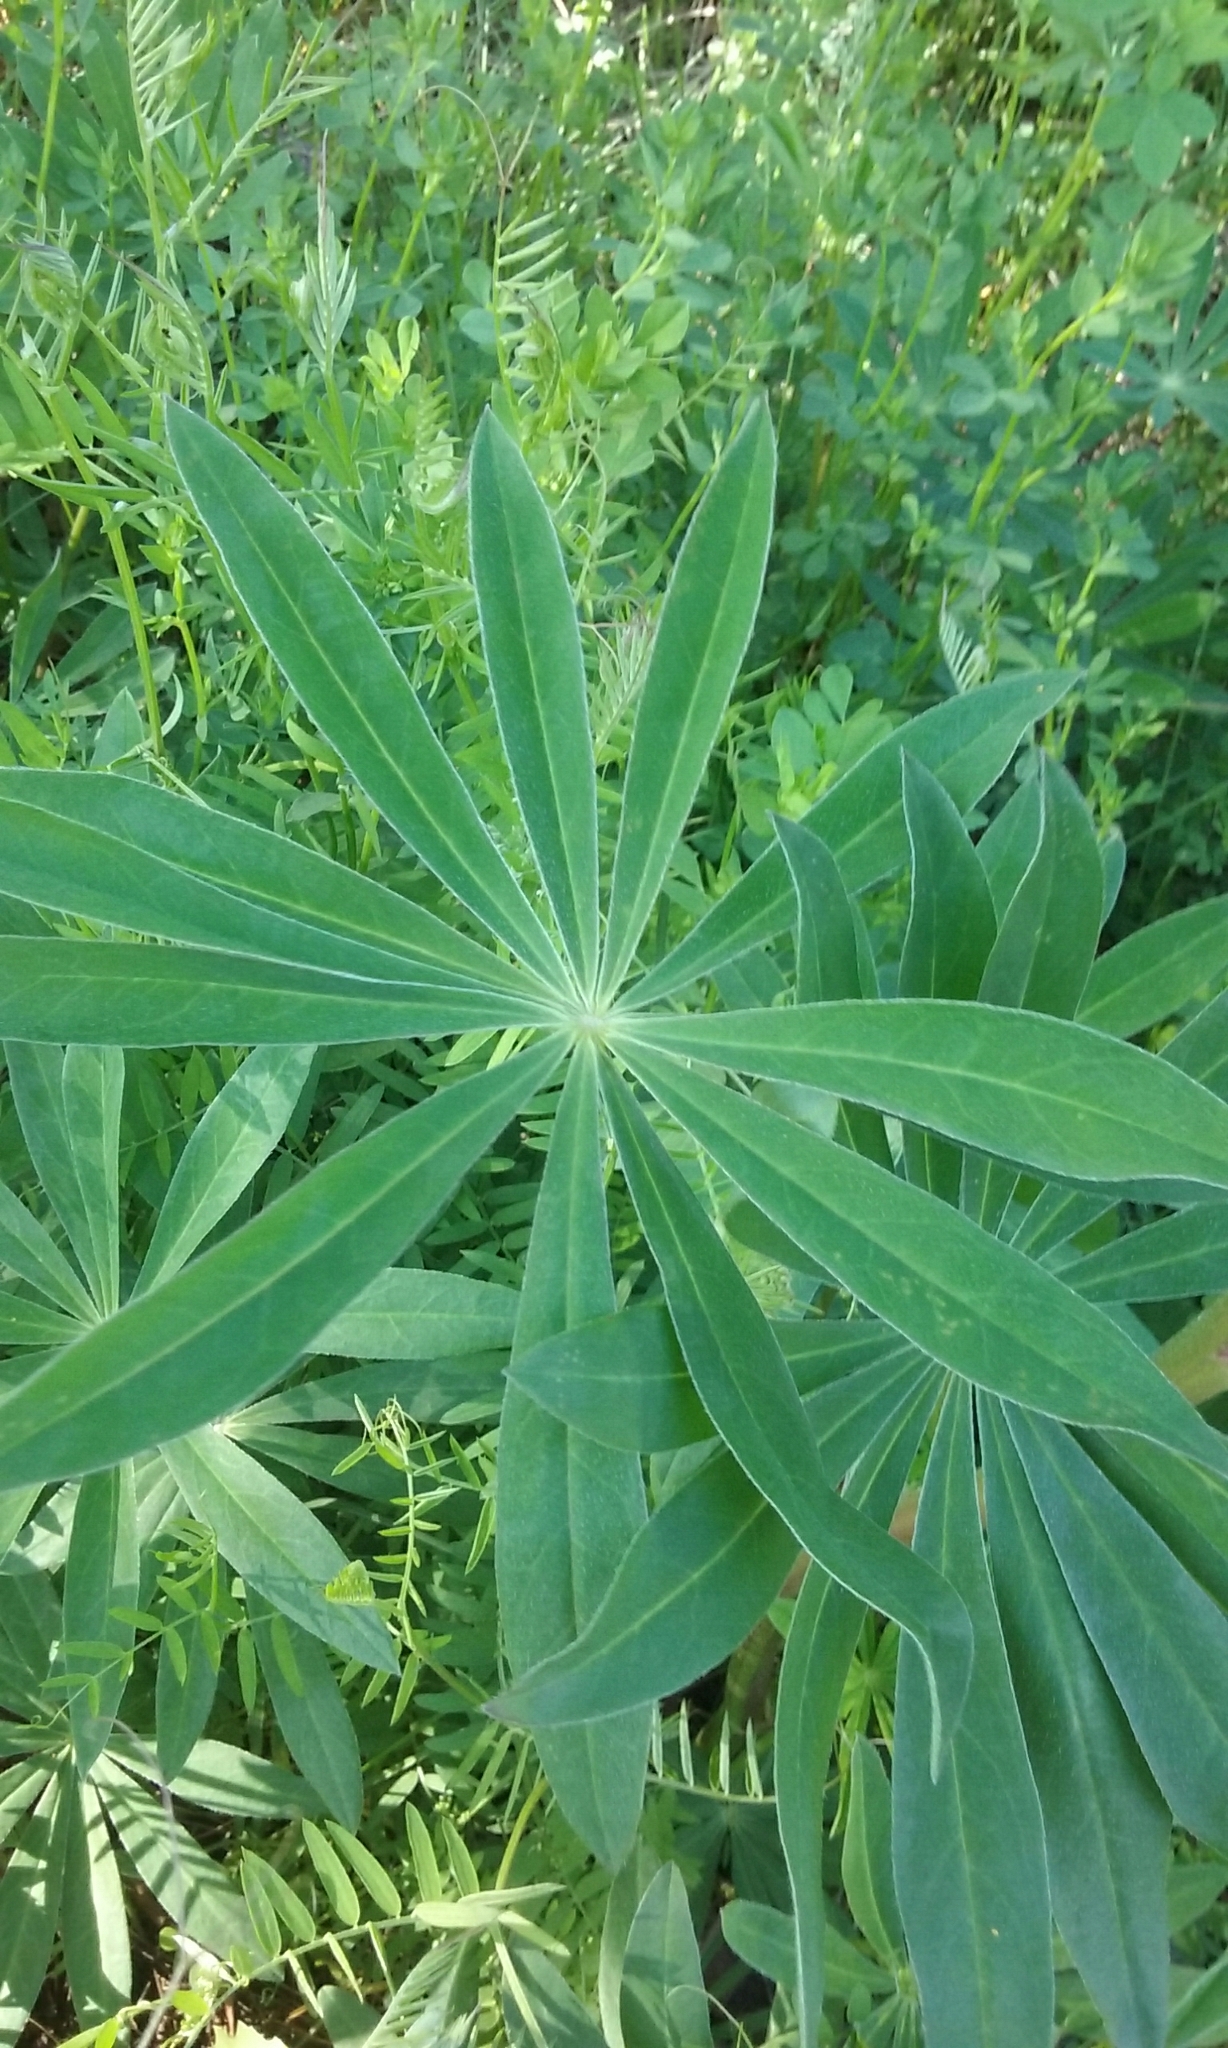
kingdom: Plantae
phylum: Tracheophyta
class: Magnoliopsida
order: Fabales
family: Fabaceae
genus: Lupinus
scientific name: Lupinus polyphyllus
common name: Garden lupin
